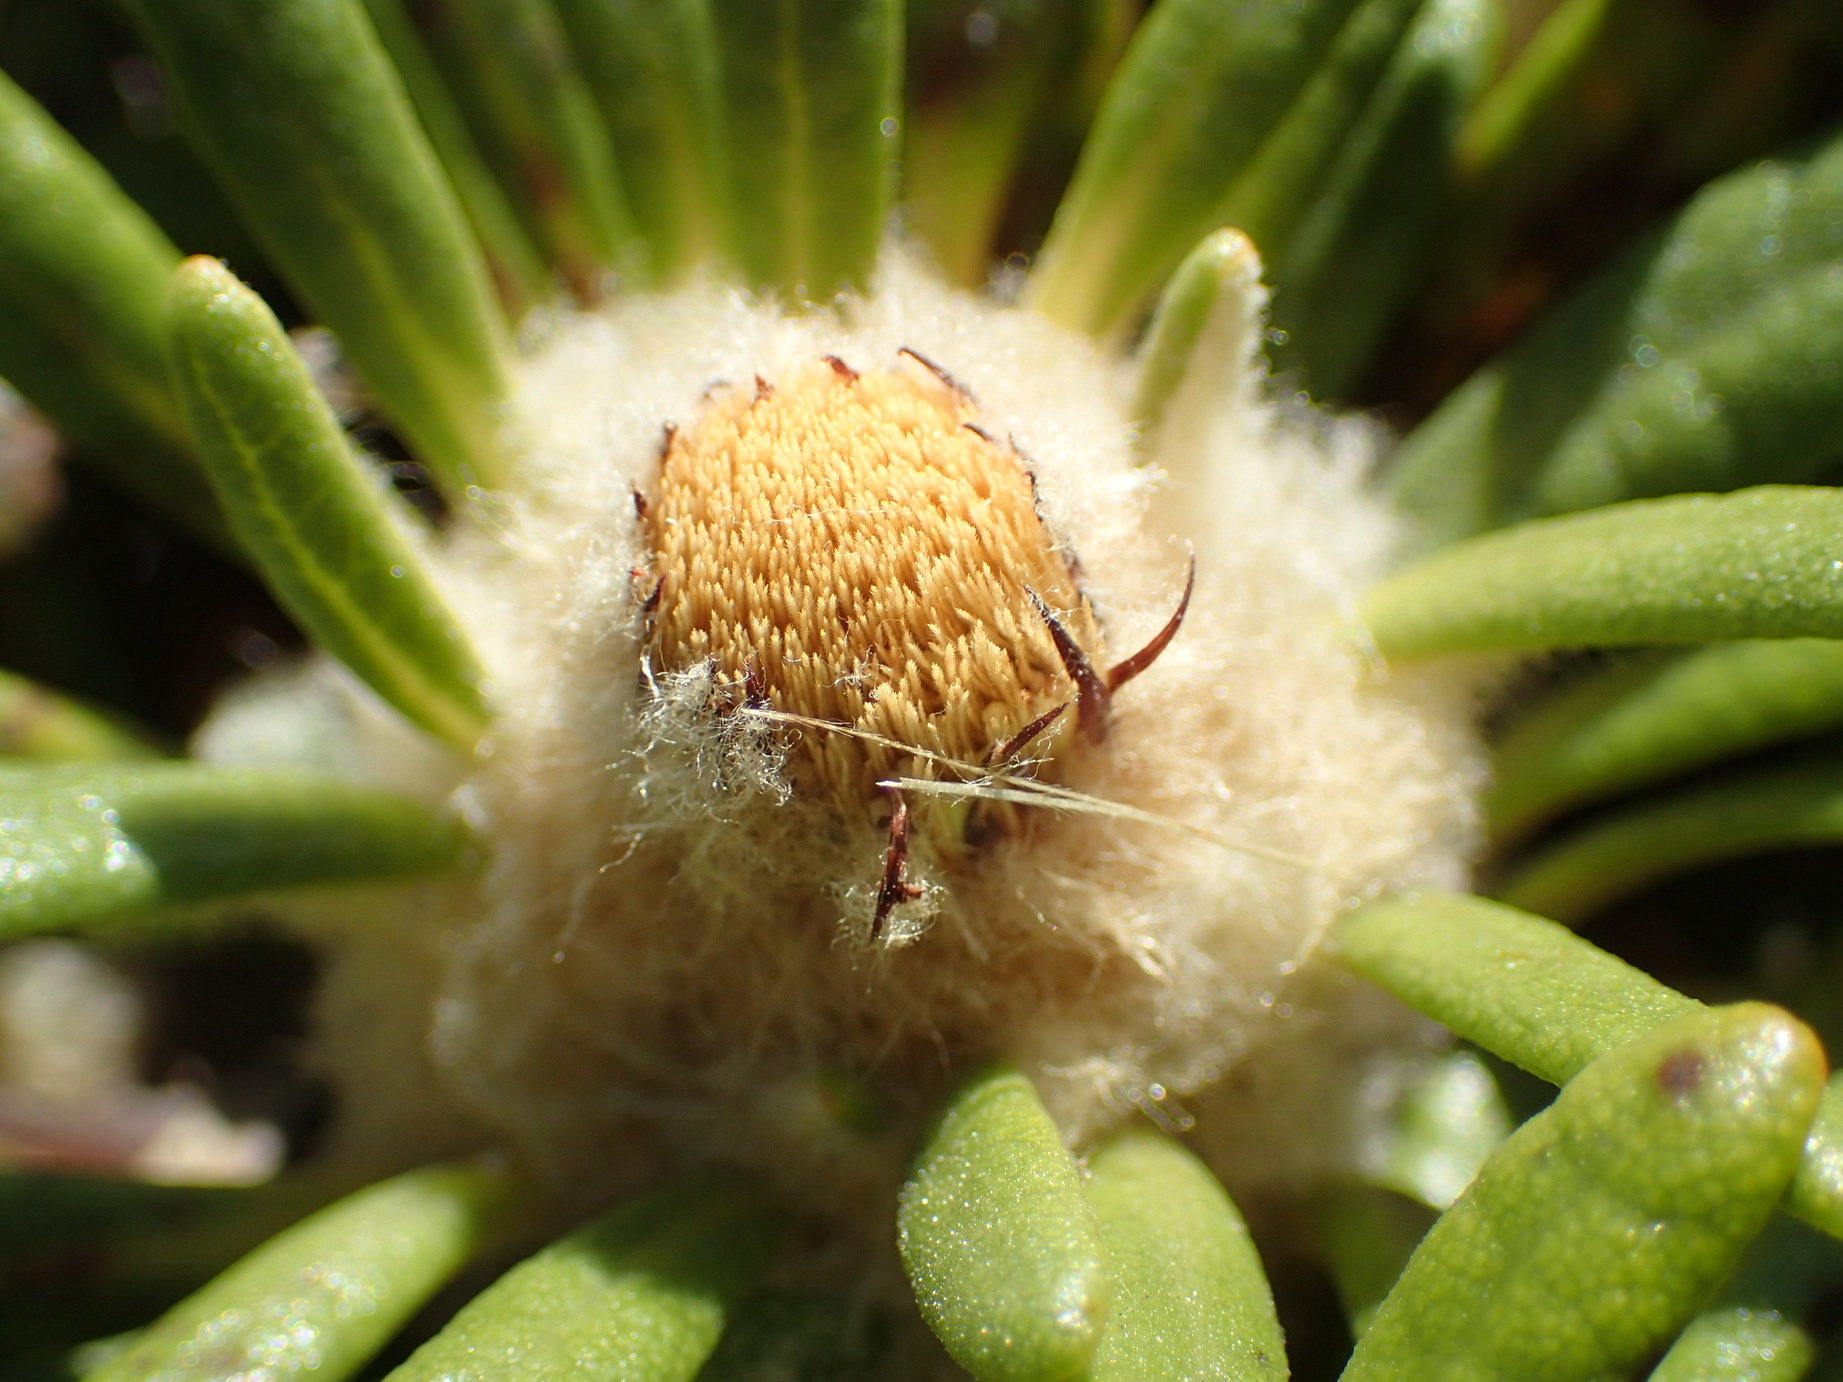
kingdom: Plantae
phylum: Tracheophyta
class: Magnoliopsida
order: Asterales
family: Asteraceae
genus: Oldenburgia
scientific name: Oldenburgia paradoxa
